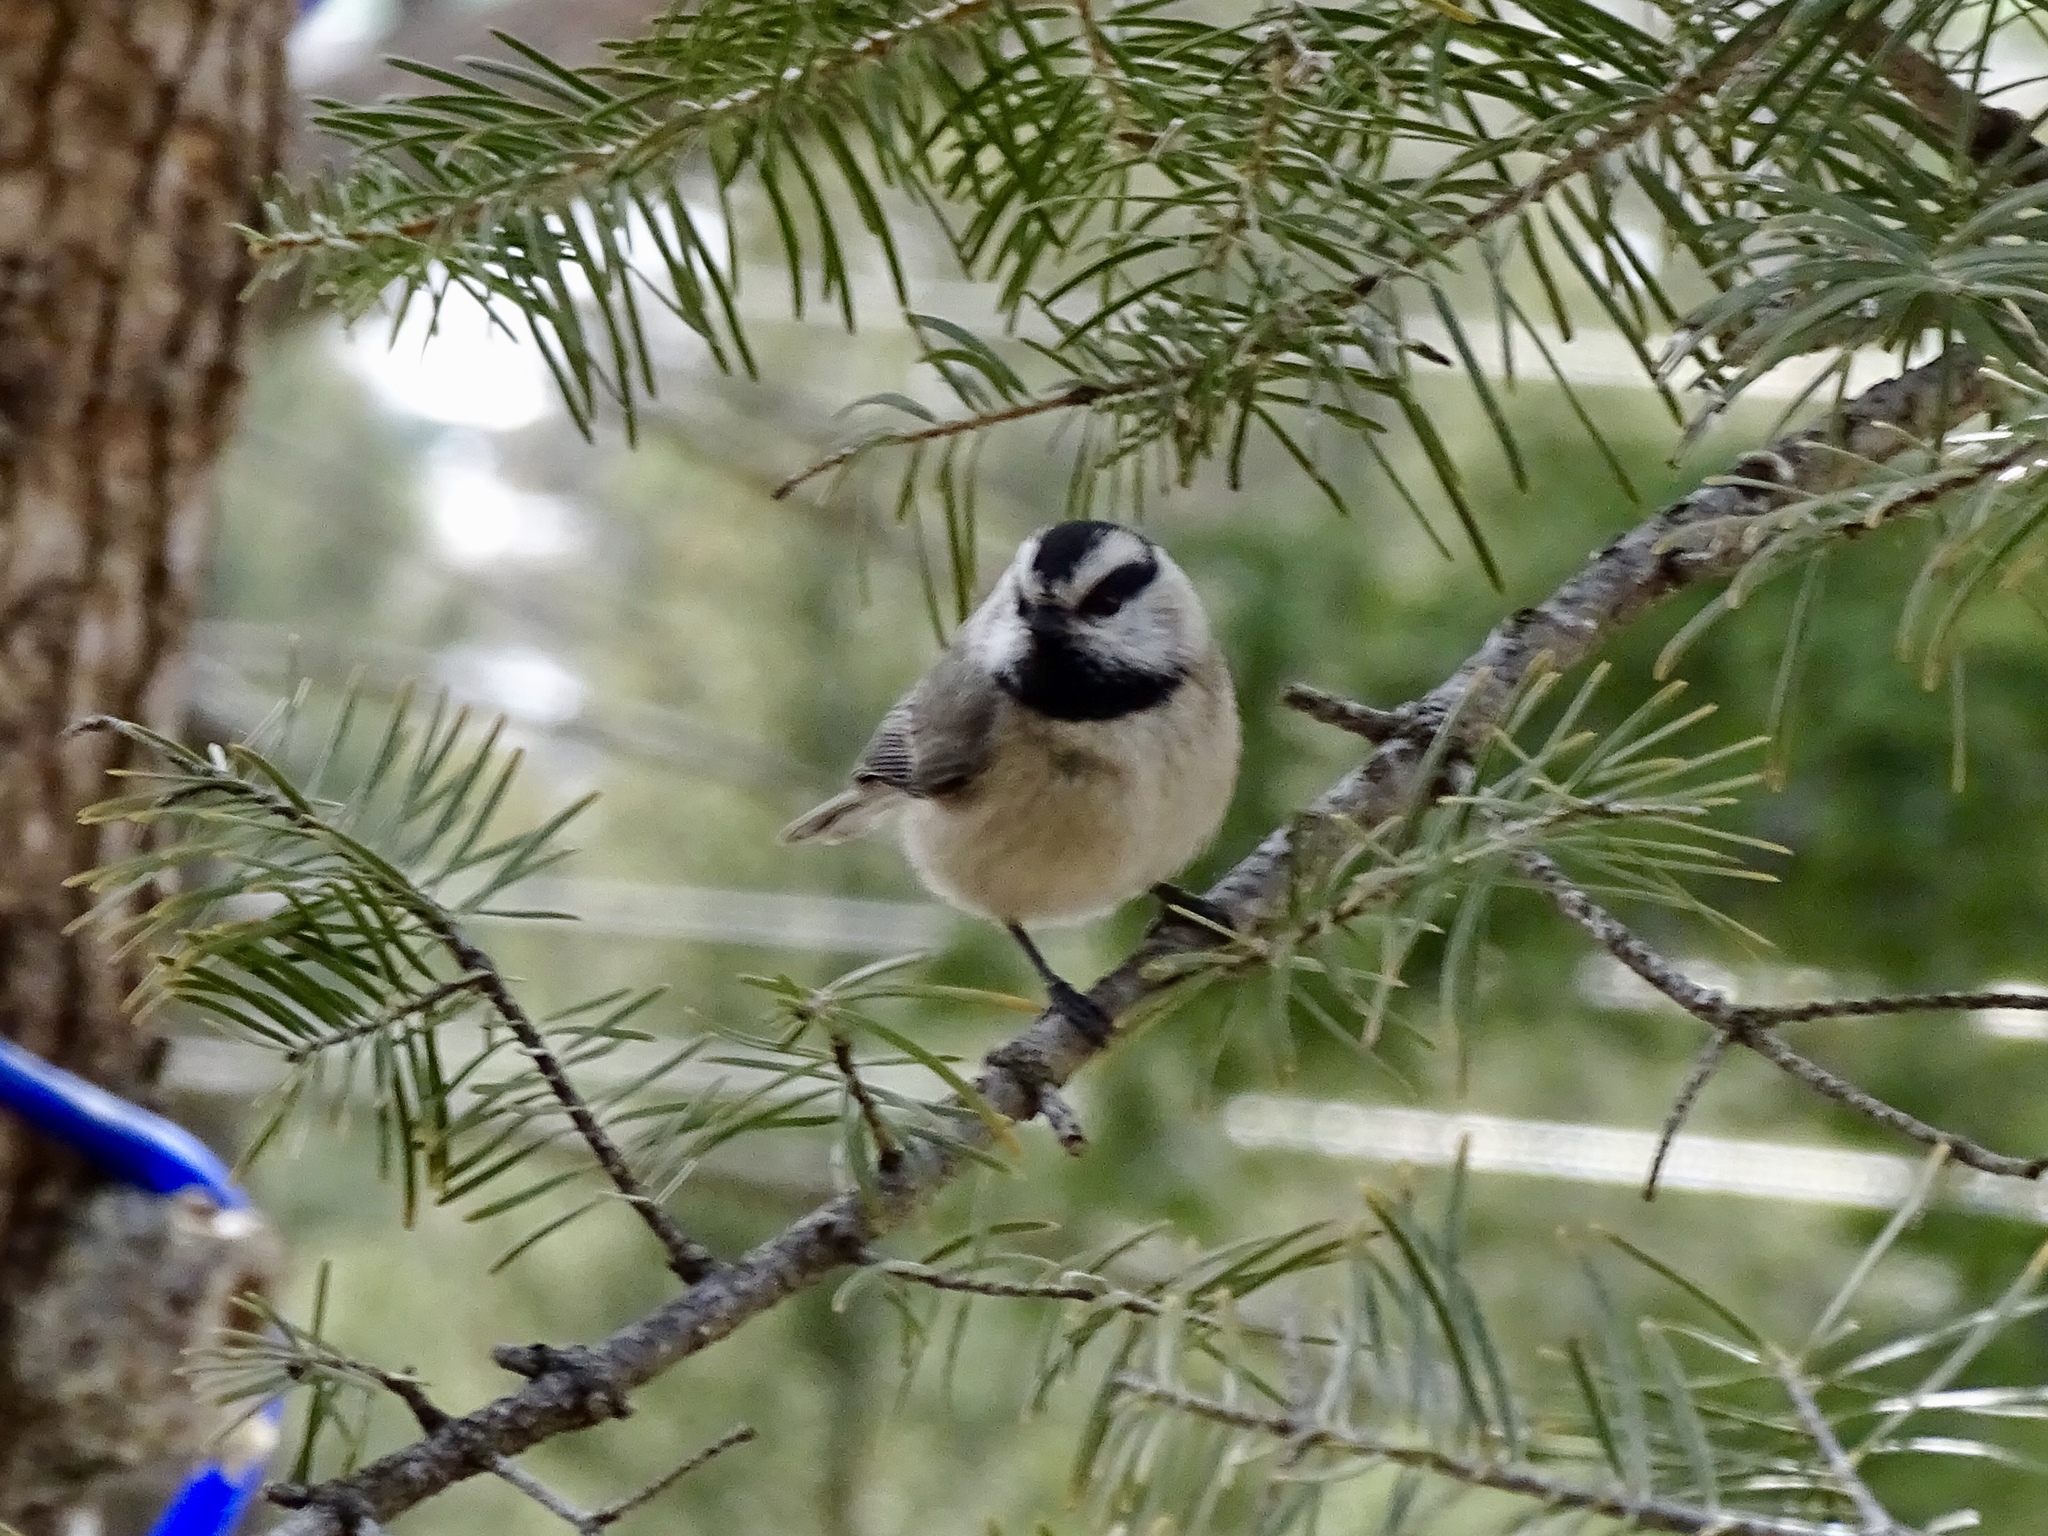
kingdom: Animalia
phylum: Chordata
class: Aves
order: Passeriformes
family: Paridae
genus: Poecile
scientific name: Poecile gambeli
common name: Mountain chickadee
